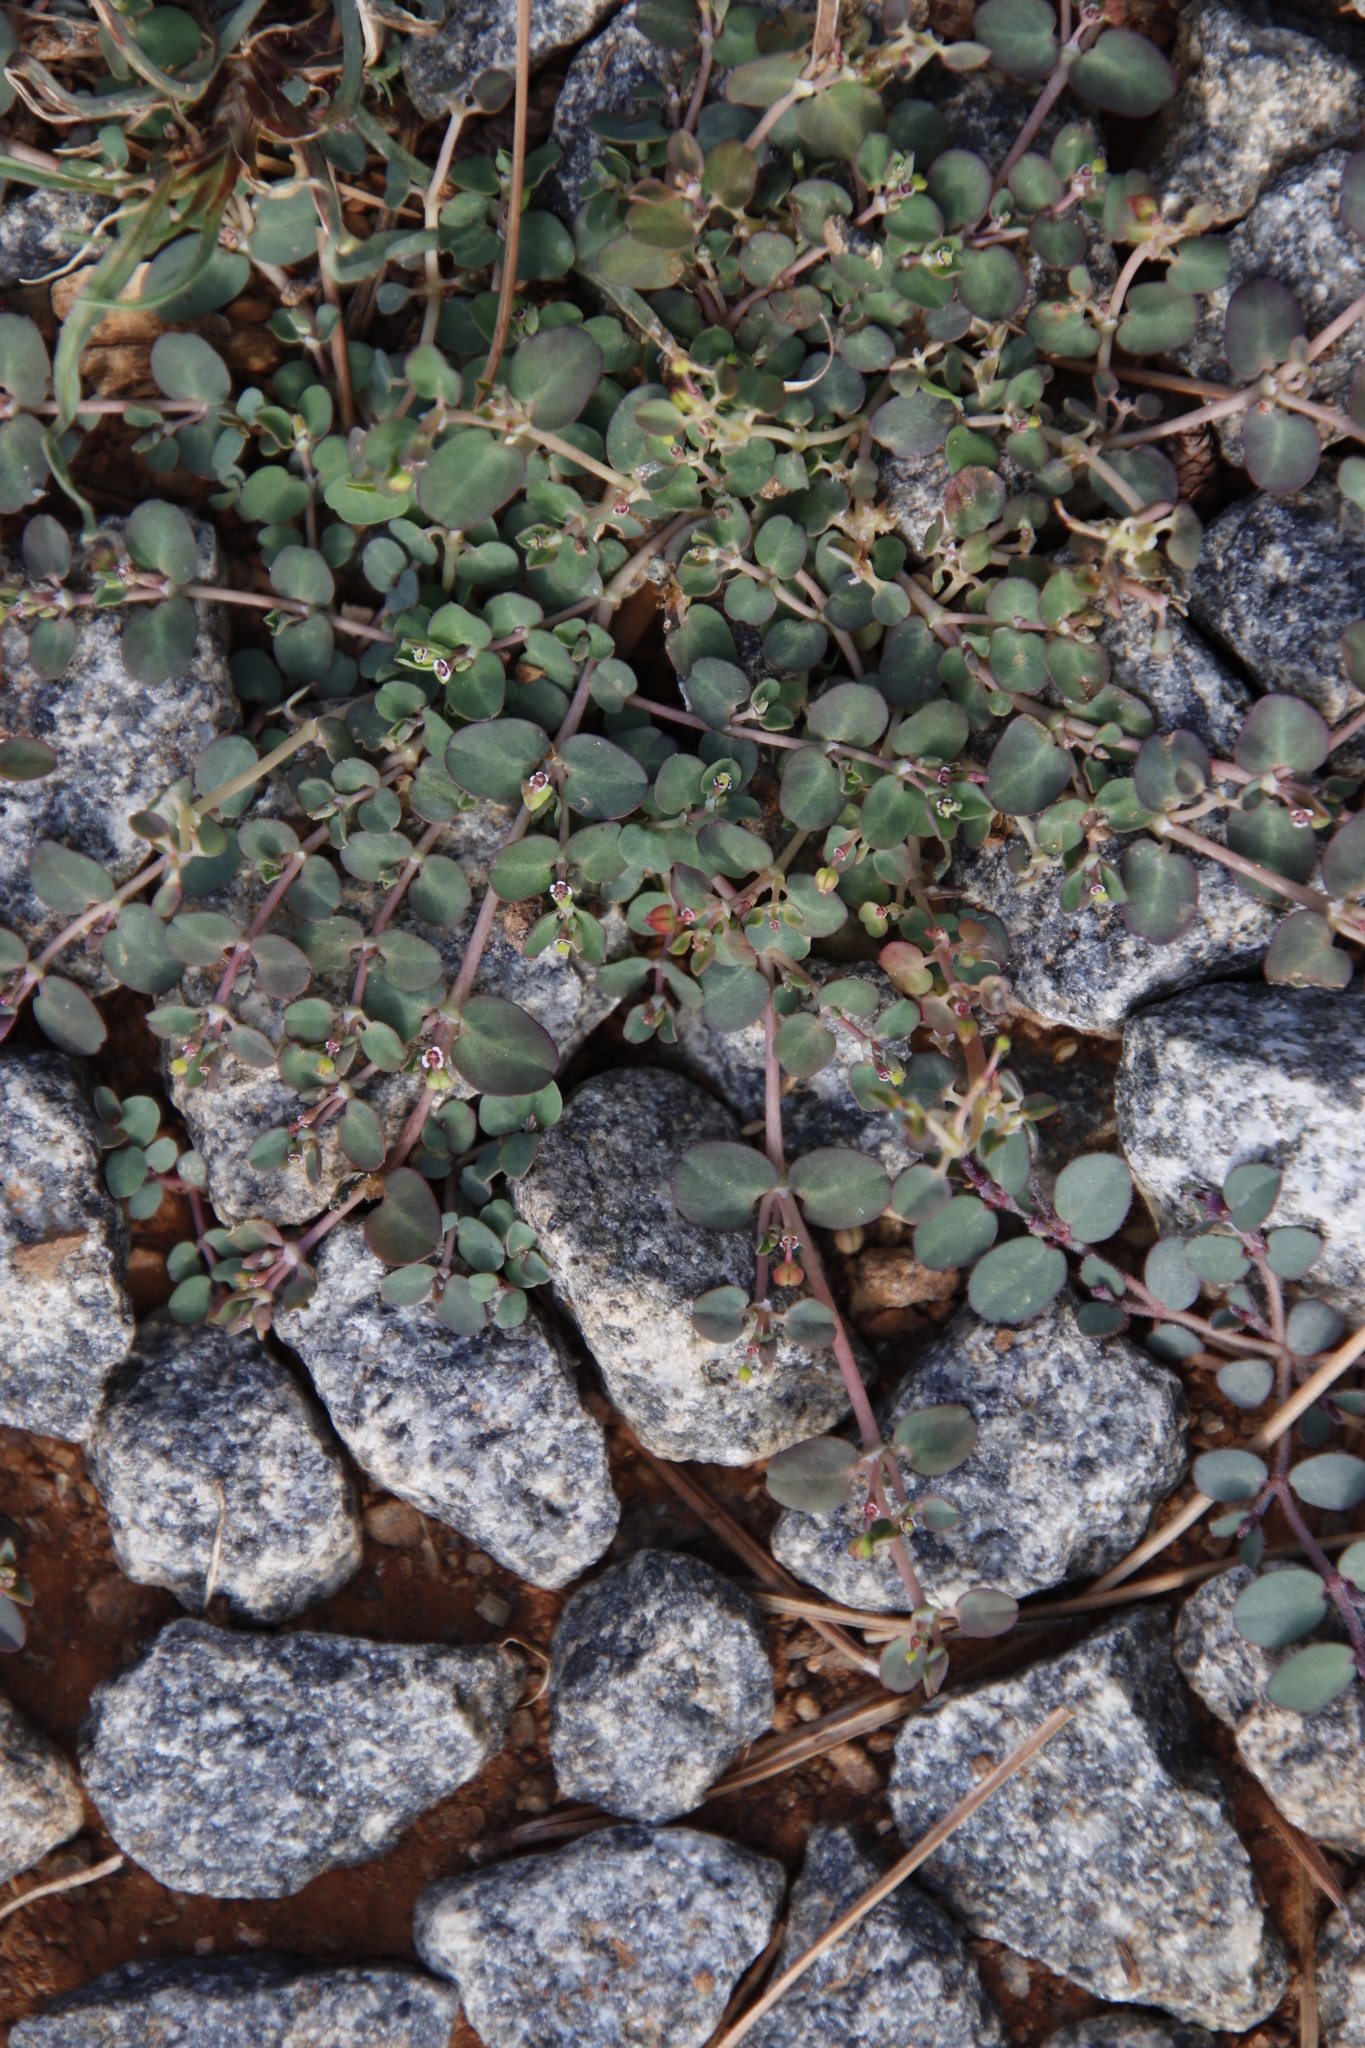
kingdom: Plantae
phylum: Tracheophyta
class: Magnoliopsida
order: Malpighiales
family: Euphorbiaceae
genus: Euphorbia
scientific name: Euphorbia serpens
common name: Matted sandmat
